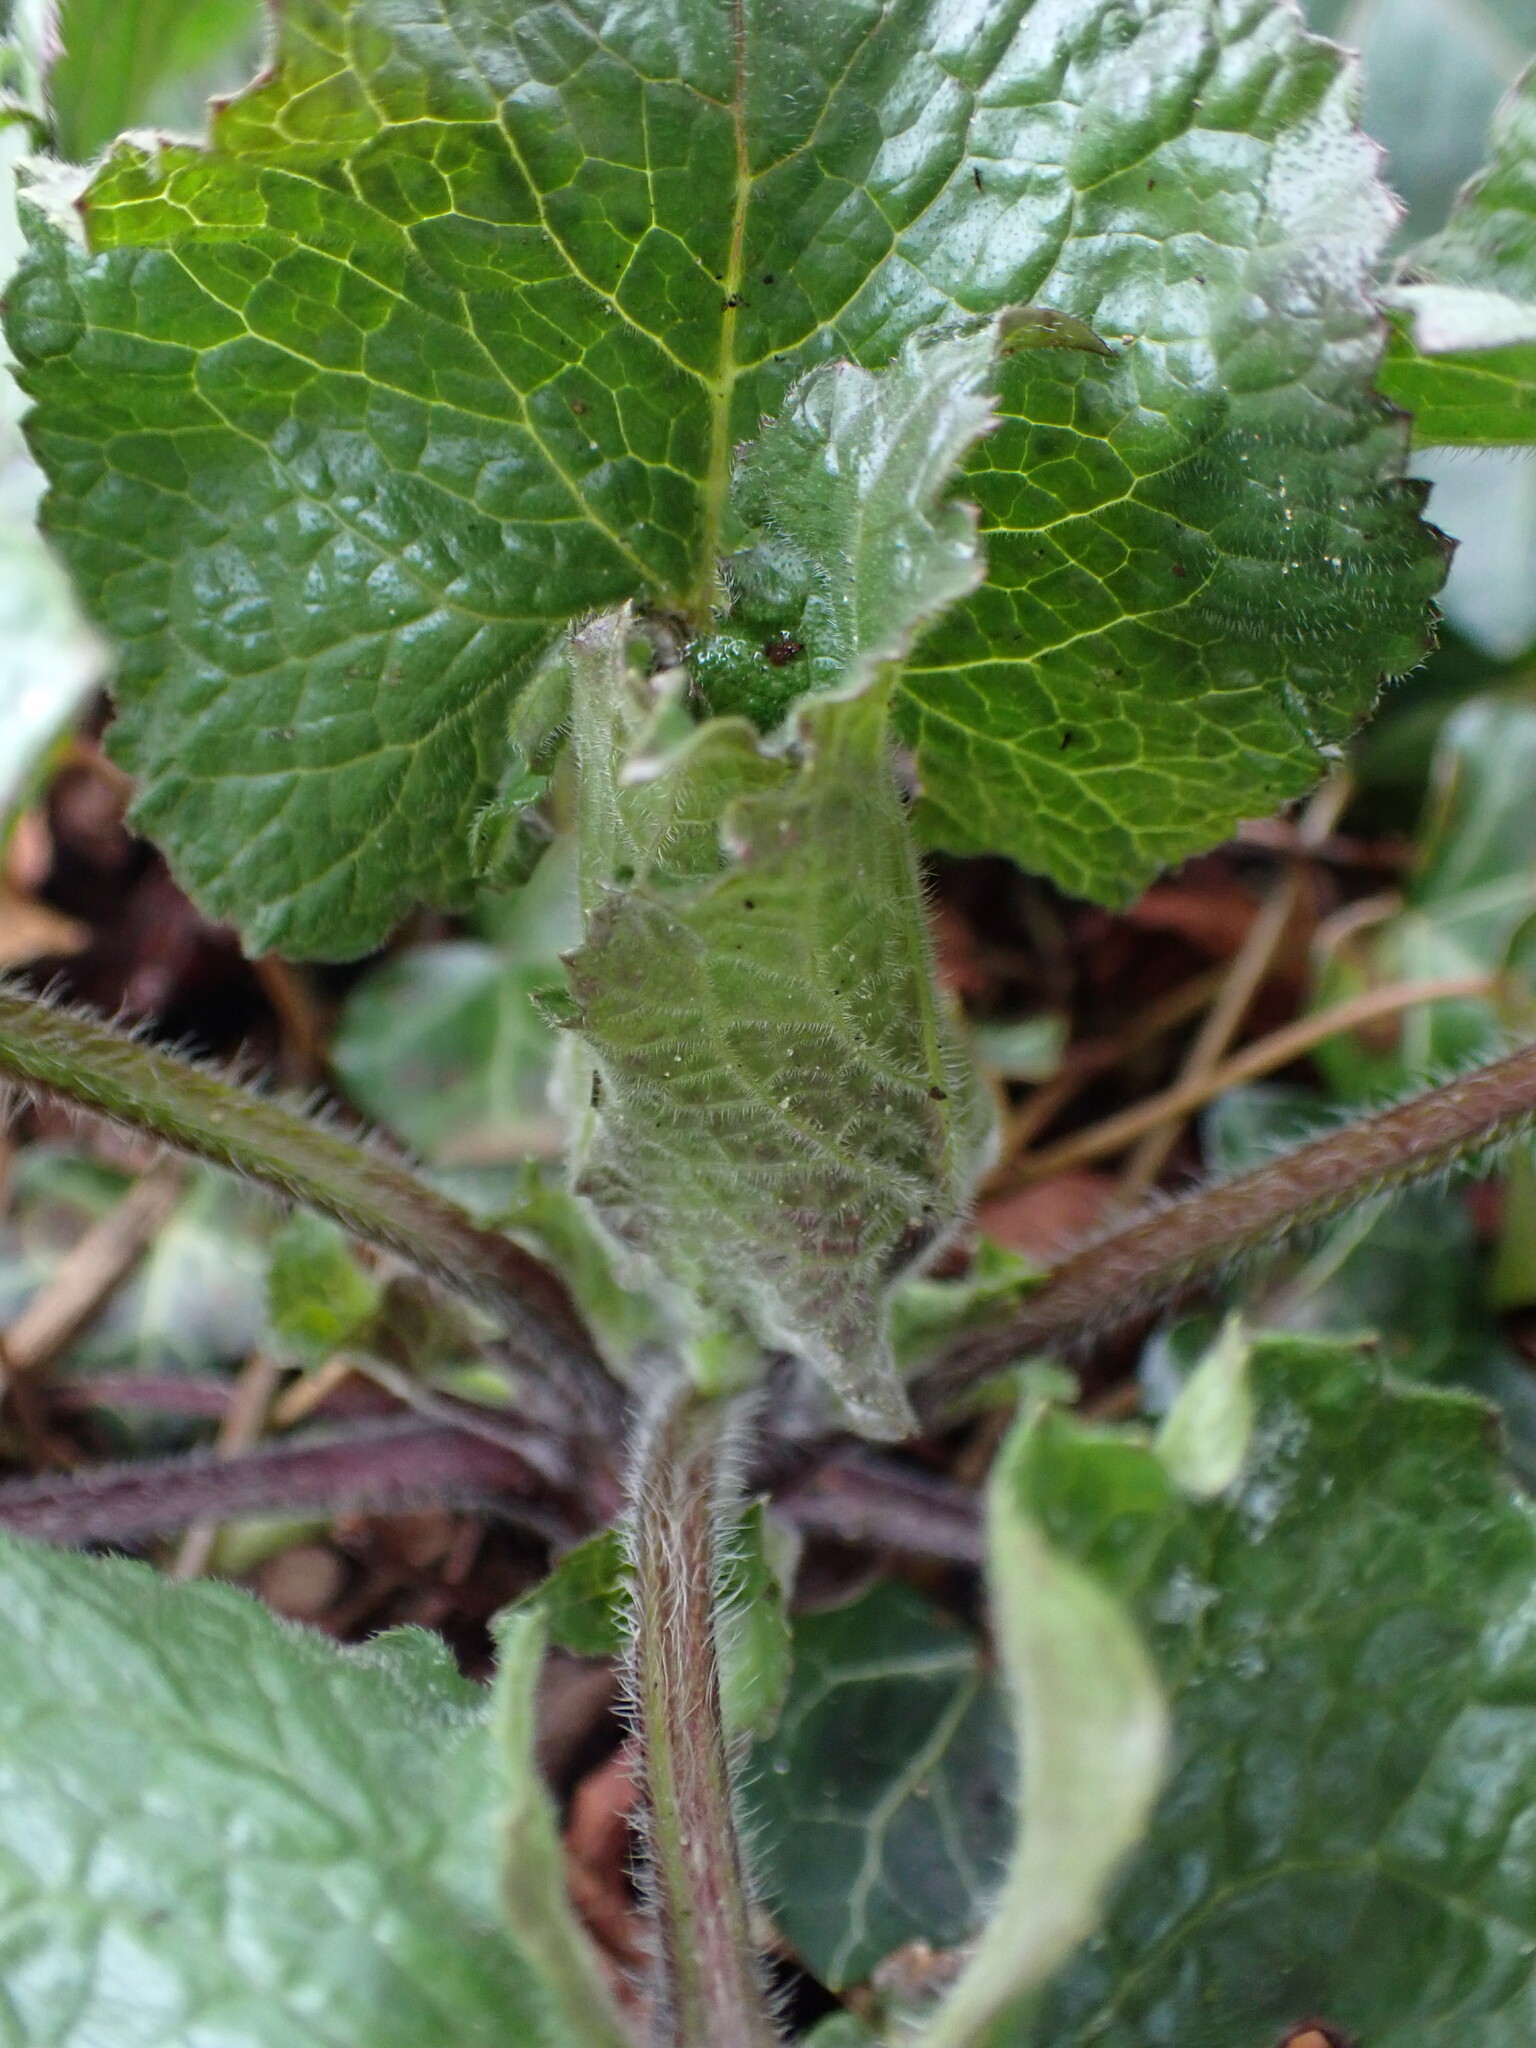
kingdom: Plantae
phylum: Tracheophyta
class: Magnoliopsida
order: Brassicales
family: Brassicaceae
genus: Lunaria
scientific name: Lunaria annua
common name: Honesty
